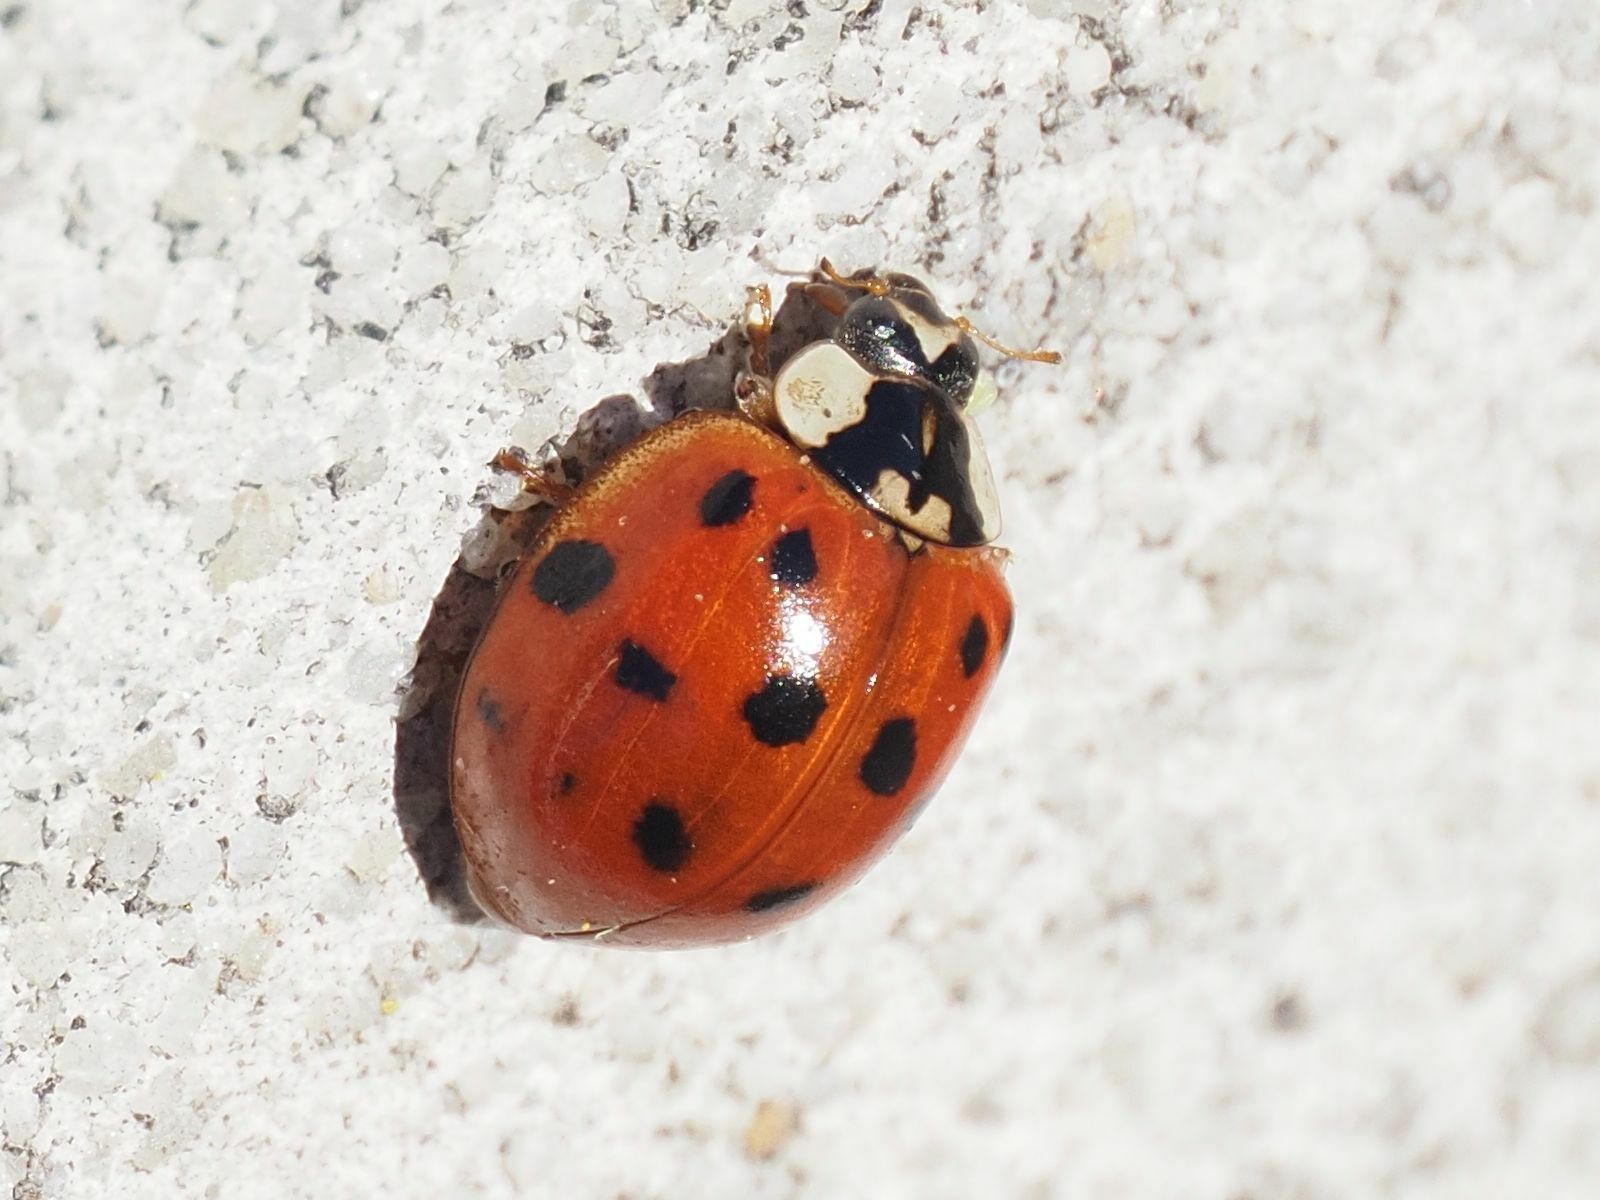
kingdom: Animalia
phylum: Arthropoda
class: Insecta
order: Coleoptera
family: Coccinellidae
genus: Harmonia
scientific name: Harmonia axyridis
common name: Harlequin ladybird
